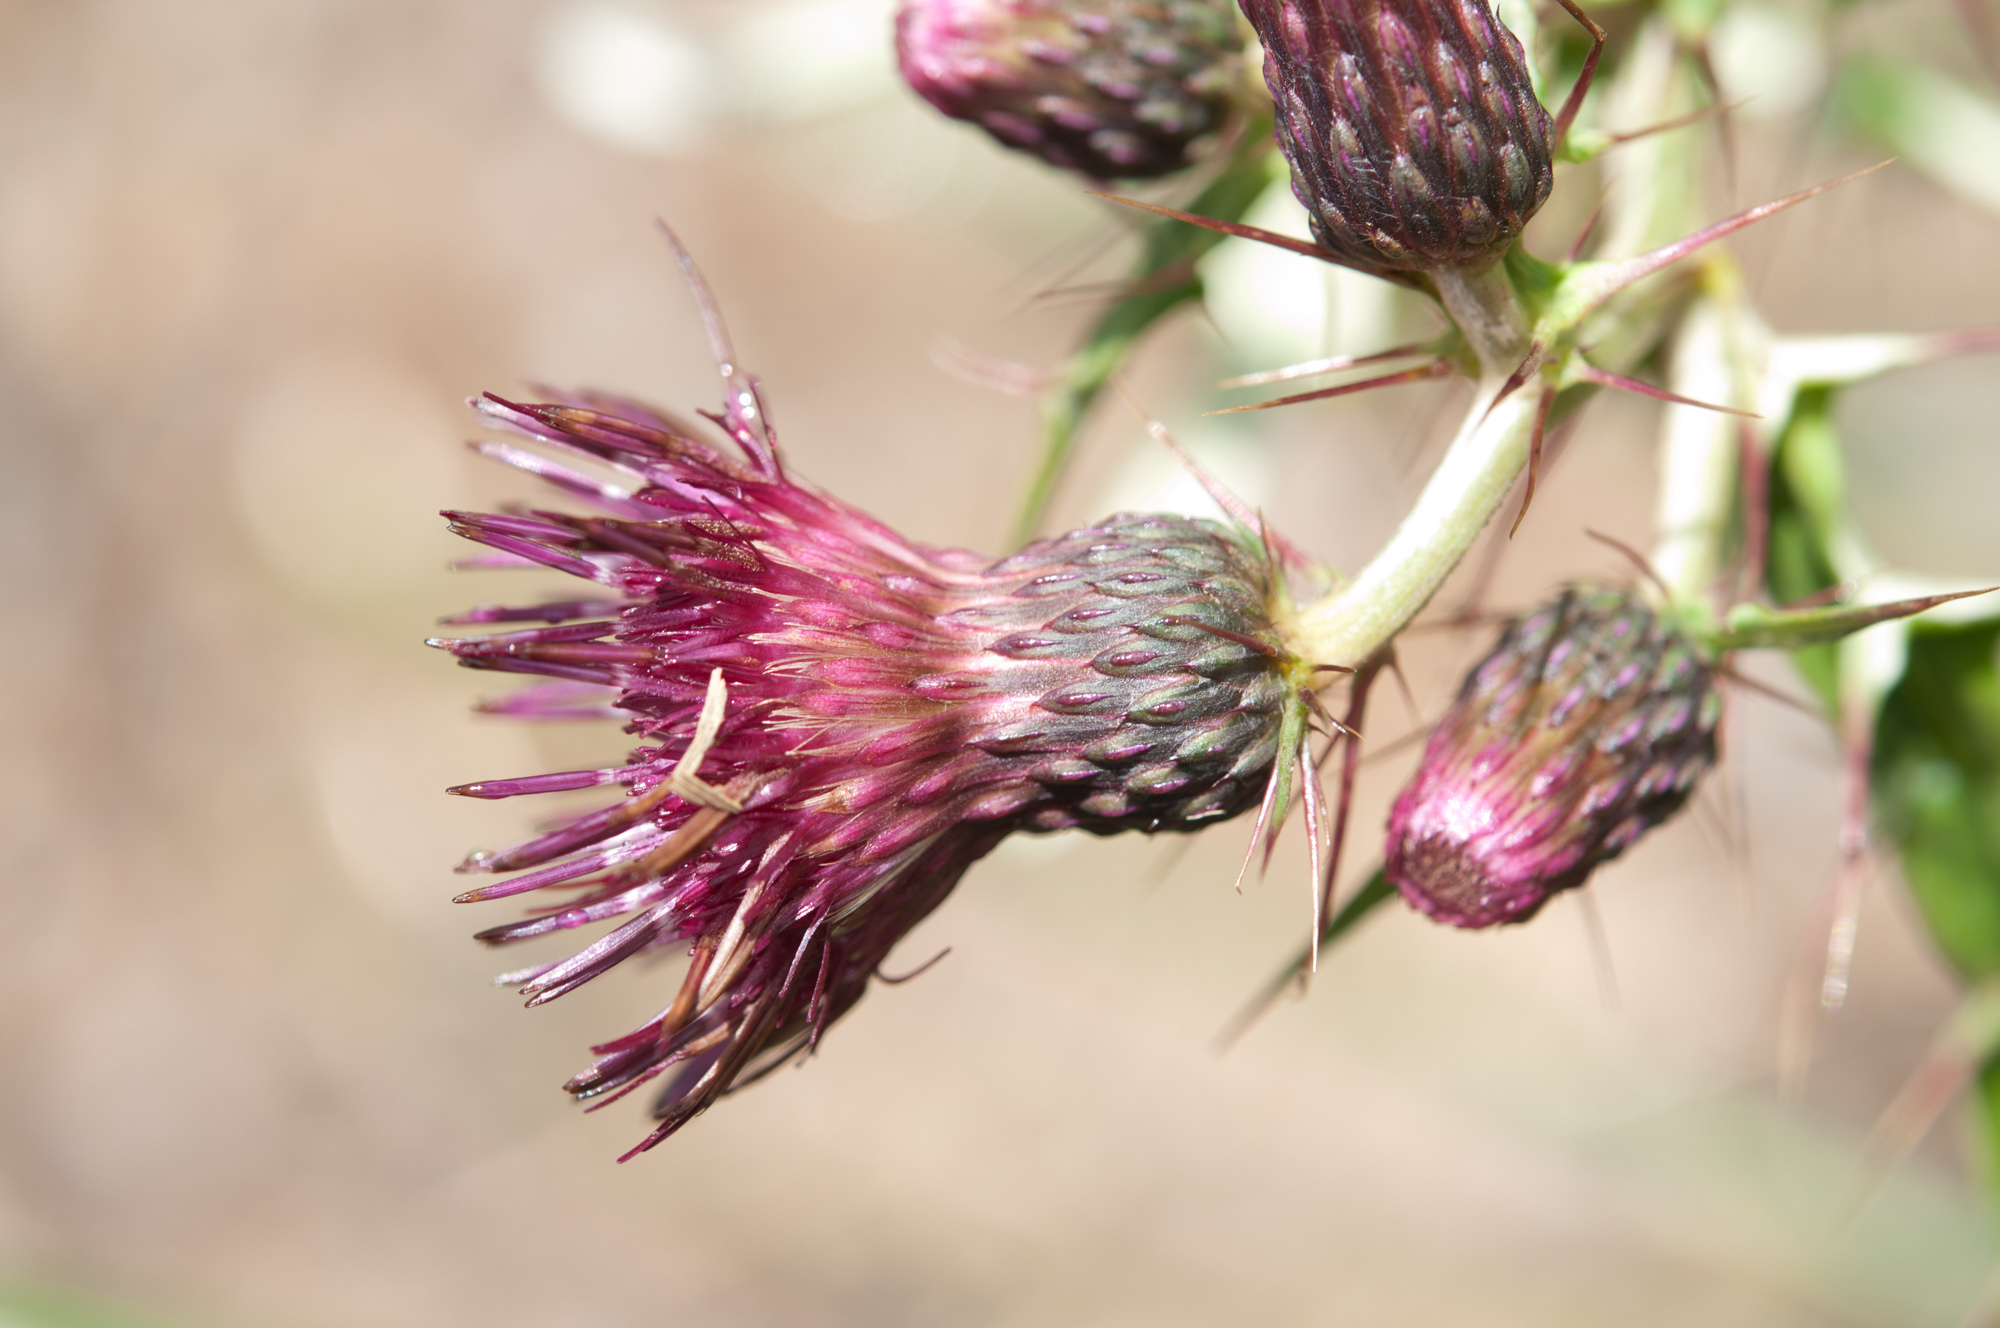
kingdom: Plantae
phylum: Tracheophyta
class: Magnoliopsida
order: Asterales
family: Asteraceae
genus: Cirsium
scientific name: Cirsium suzukii
